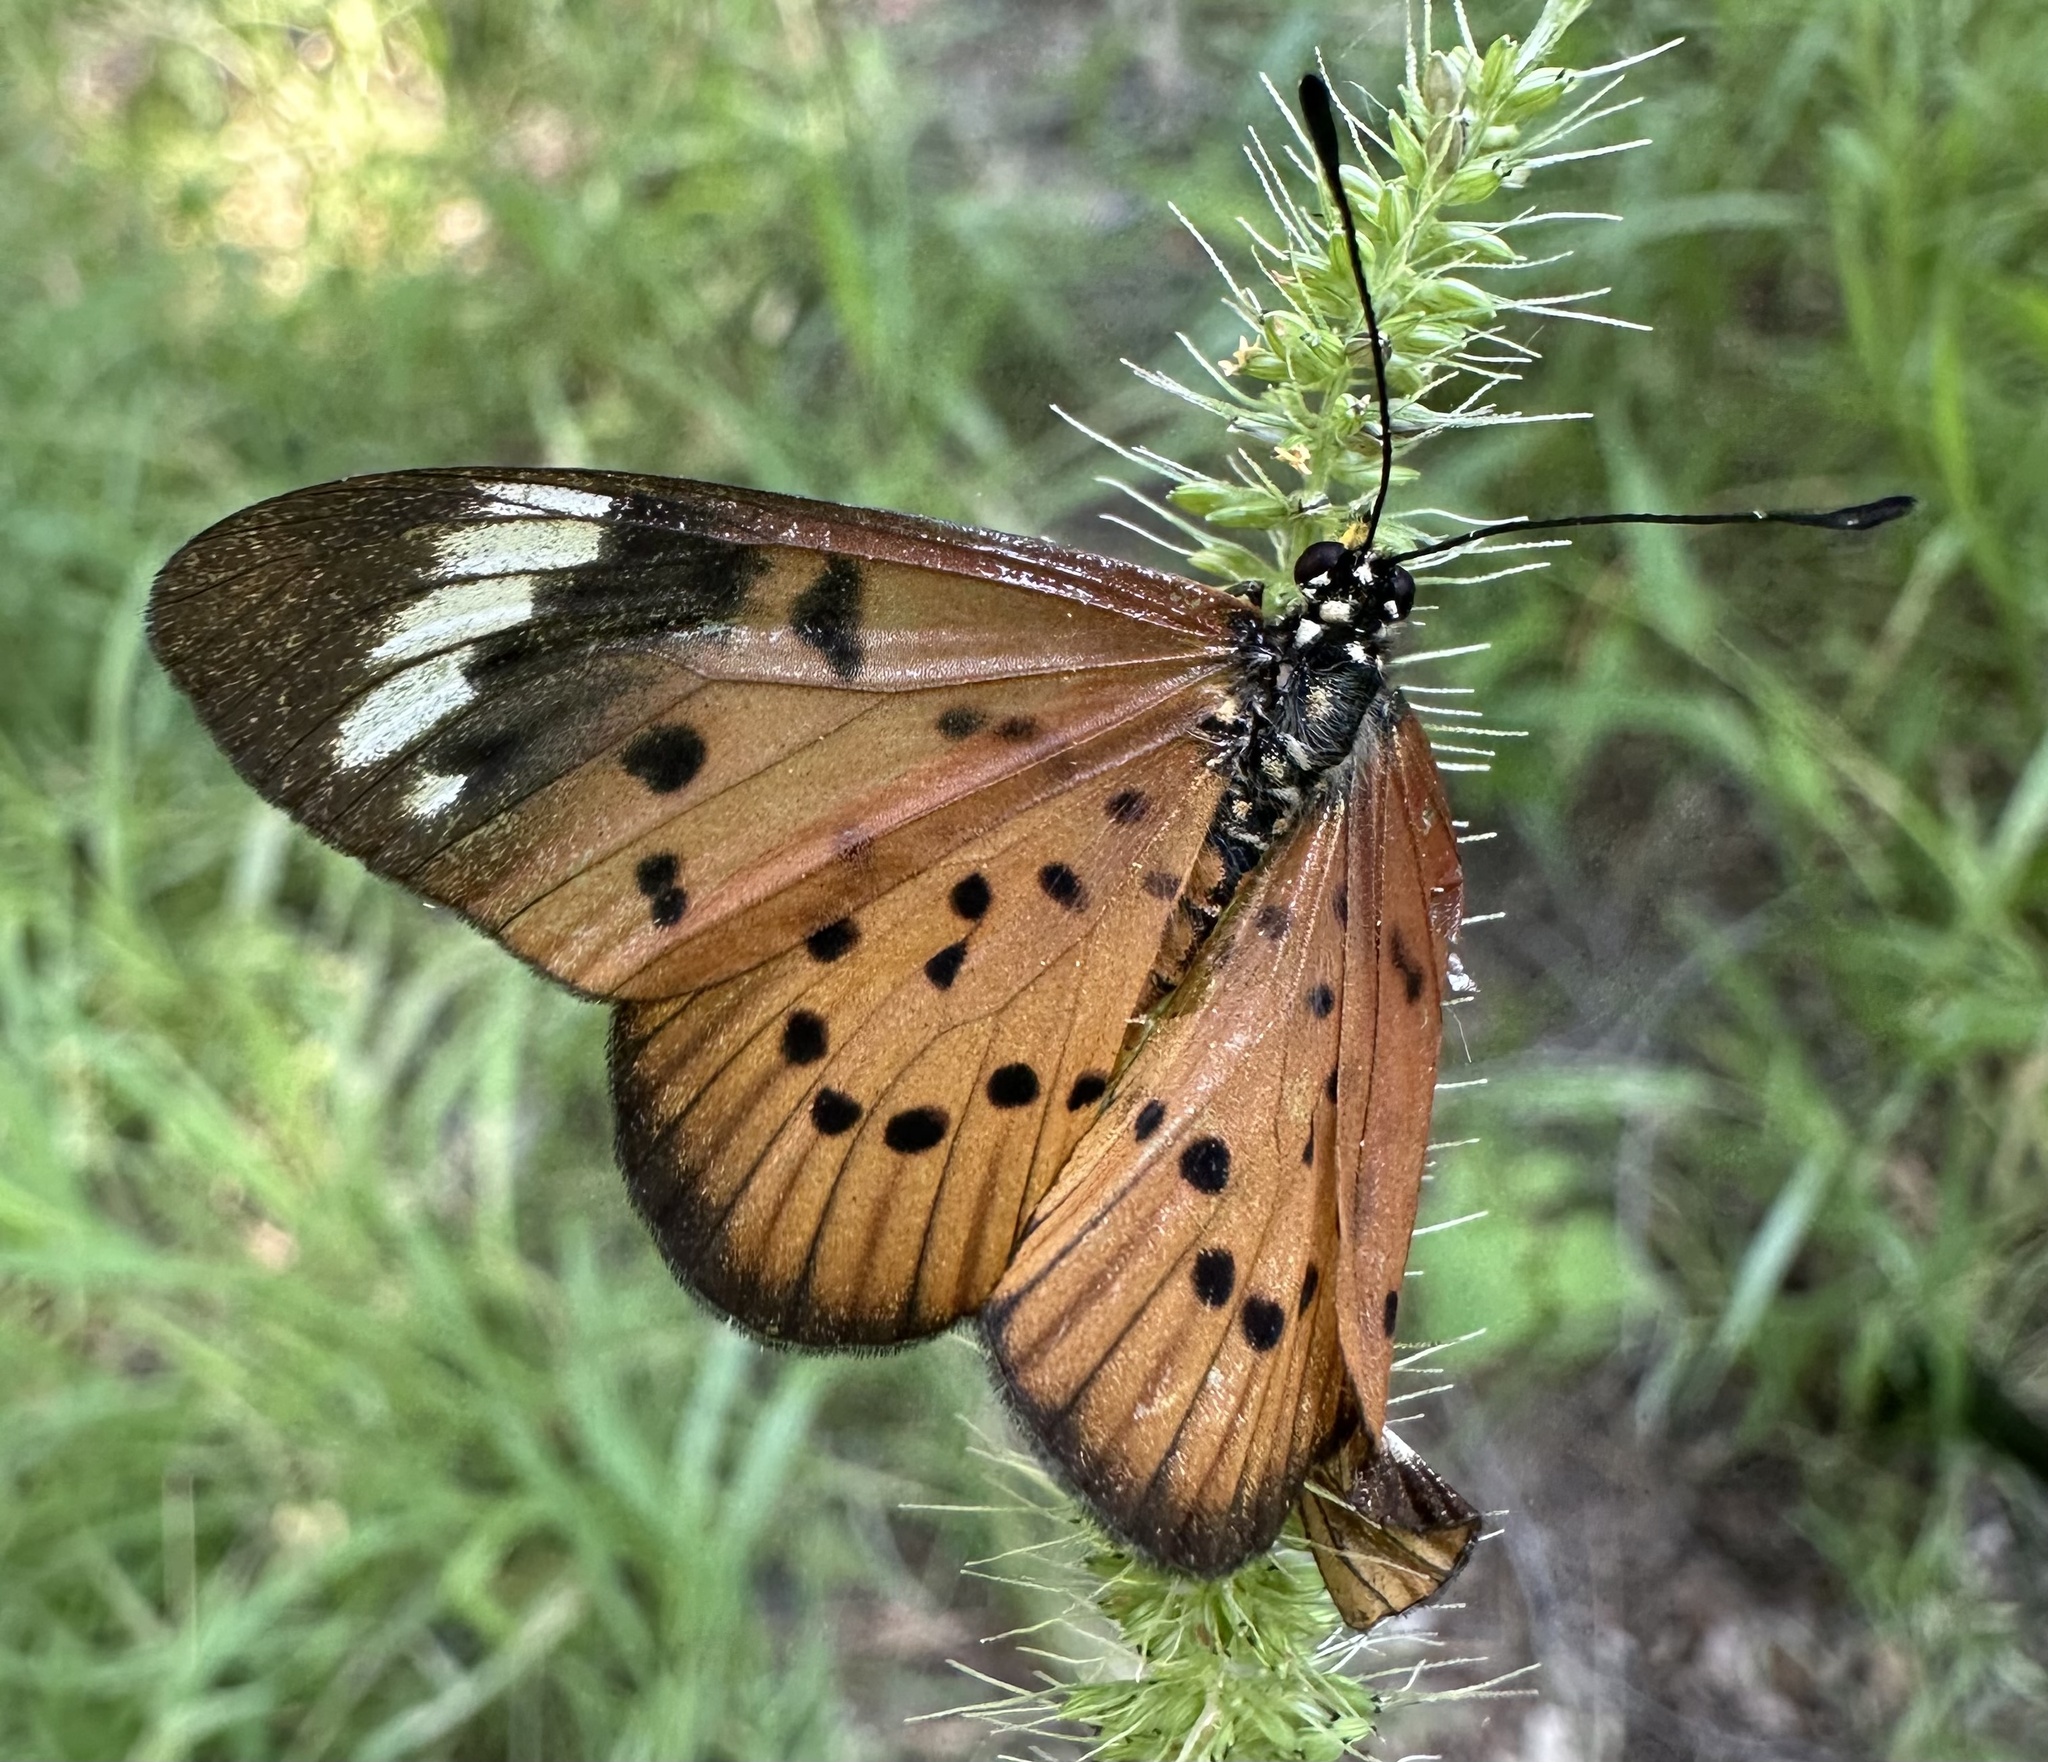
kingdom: Animalia
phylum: Arthropoda
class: Insecta
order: Lepidoptera
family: Nymphalidae
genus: Acraea
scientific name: Acraea Telchinia encedon
